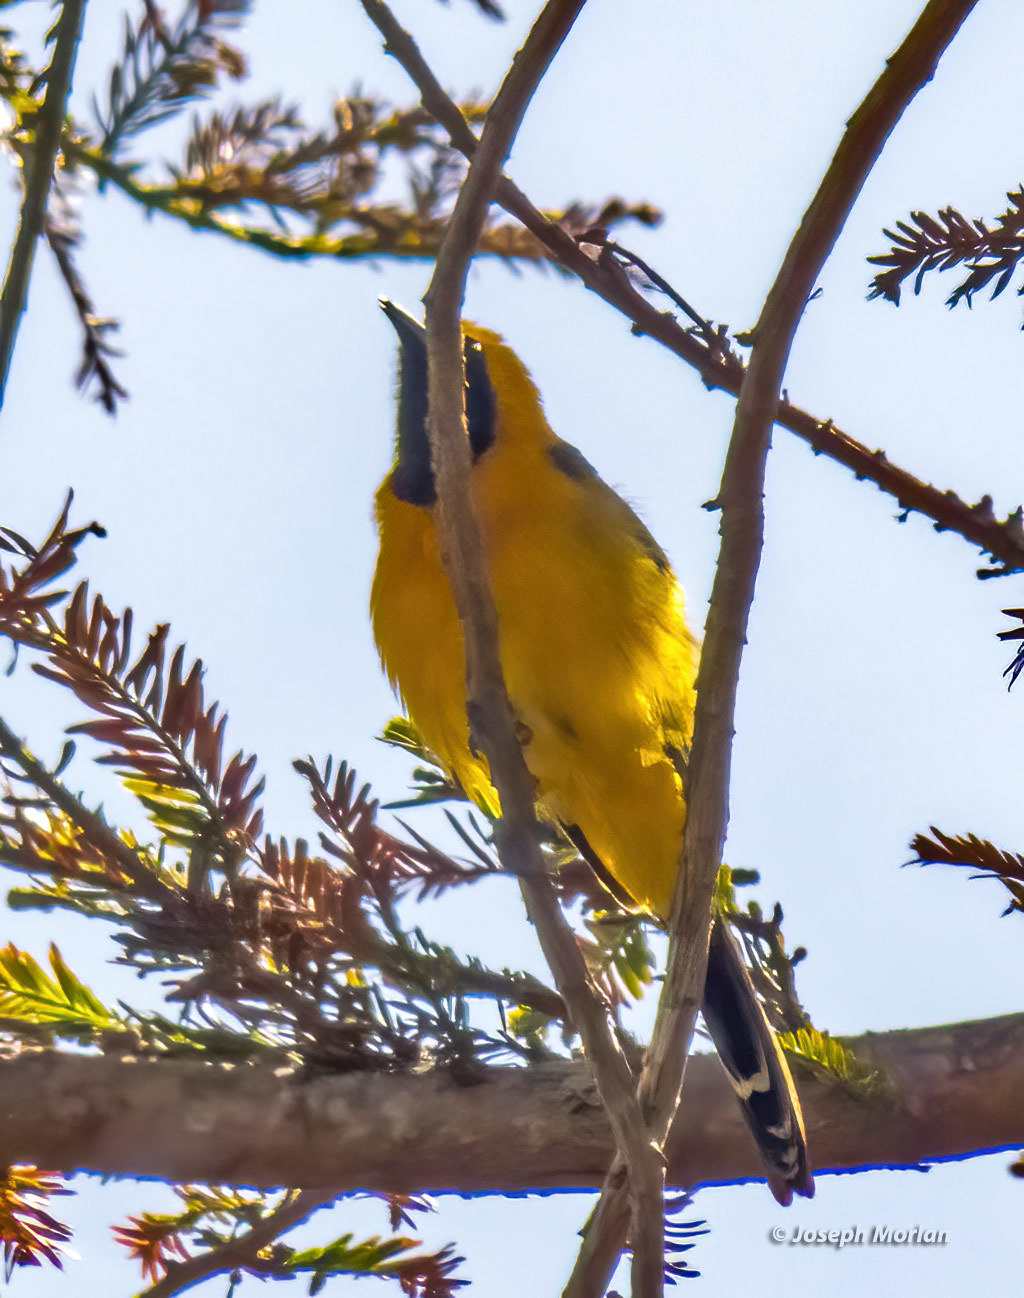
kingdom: Animalia
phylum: Chordata
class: Aves
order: Passeriformes
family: Icteridae
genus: Icterus
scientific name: Icterus cucullatus
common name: Hooded oriole
